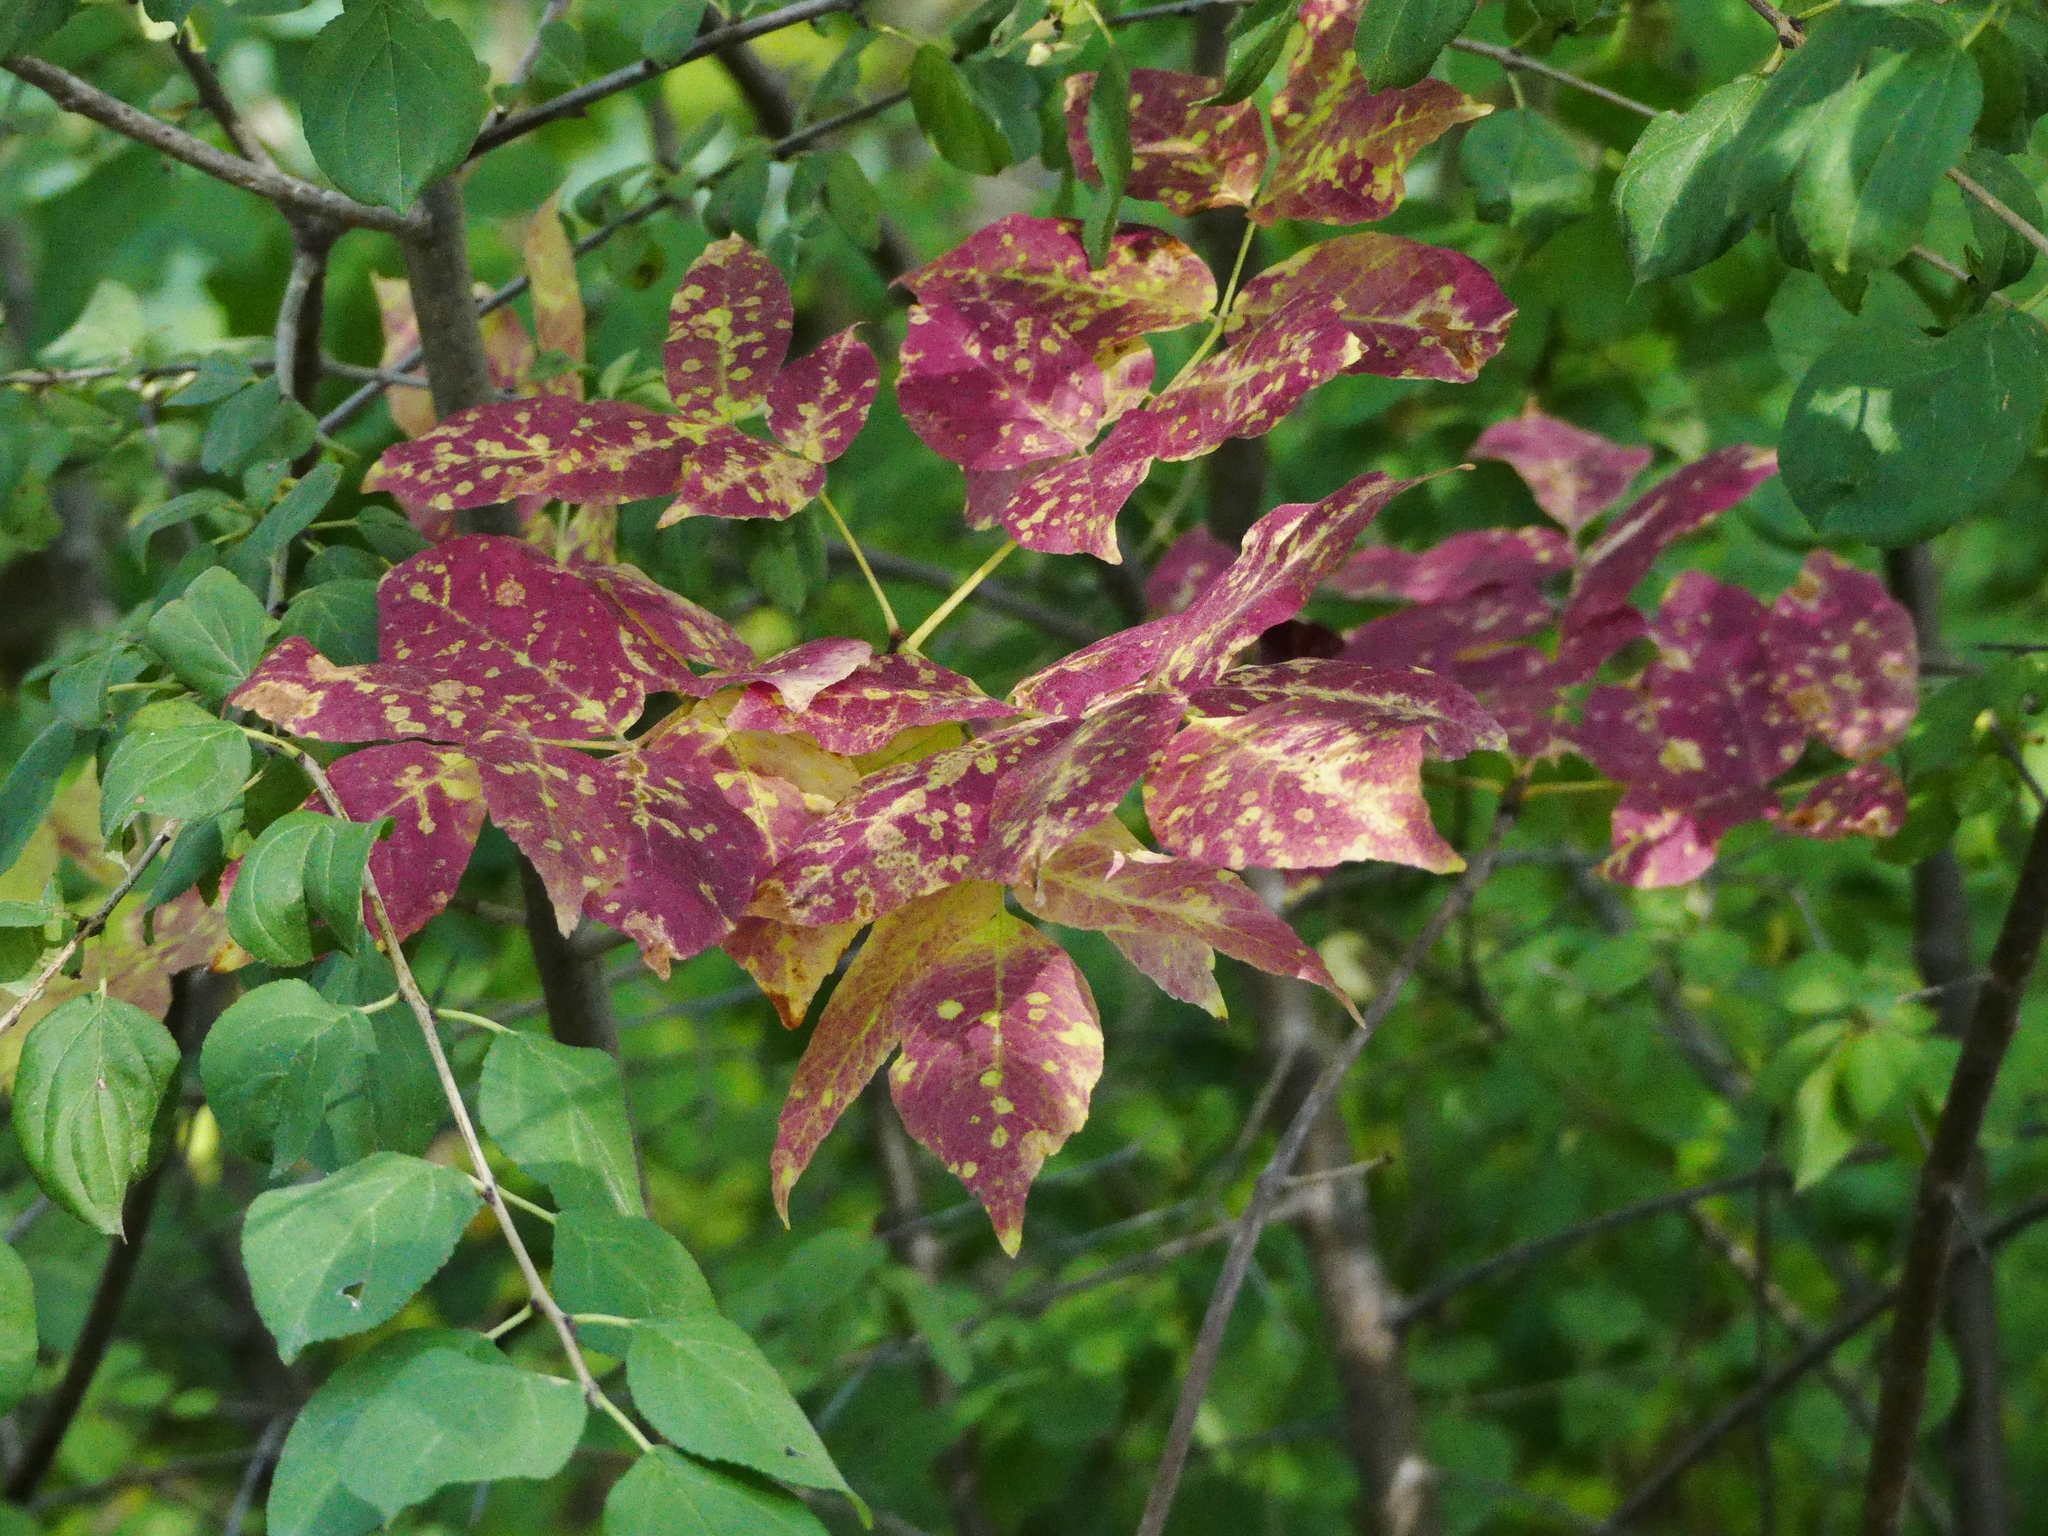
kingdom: Plantae
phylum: Tracheophyta
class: Magnoliopsida
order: Lamiales
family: Oleaceae
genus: Fraxinus
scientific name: Fraxinus americana
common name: White ash
